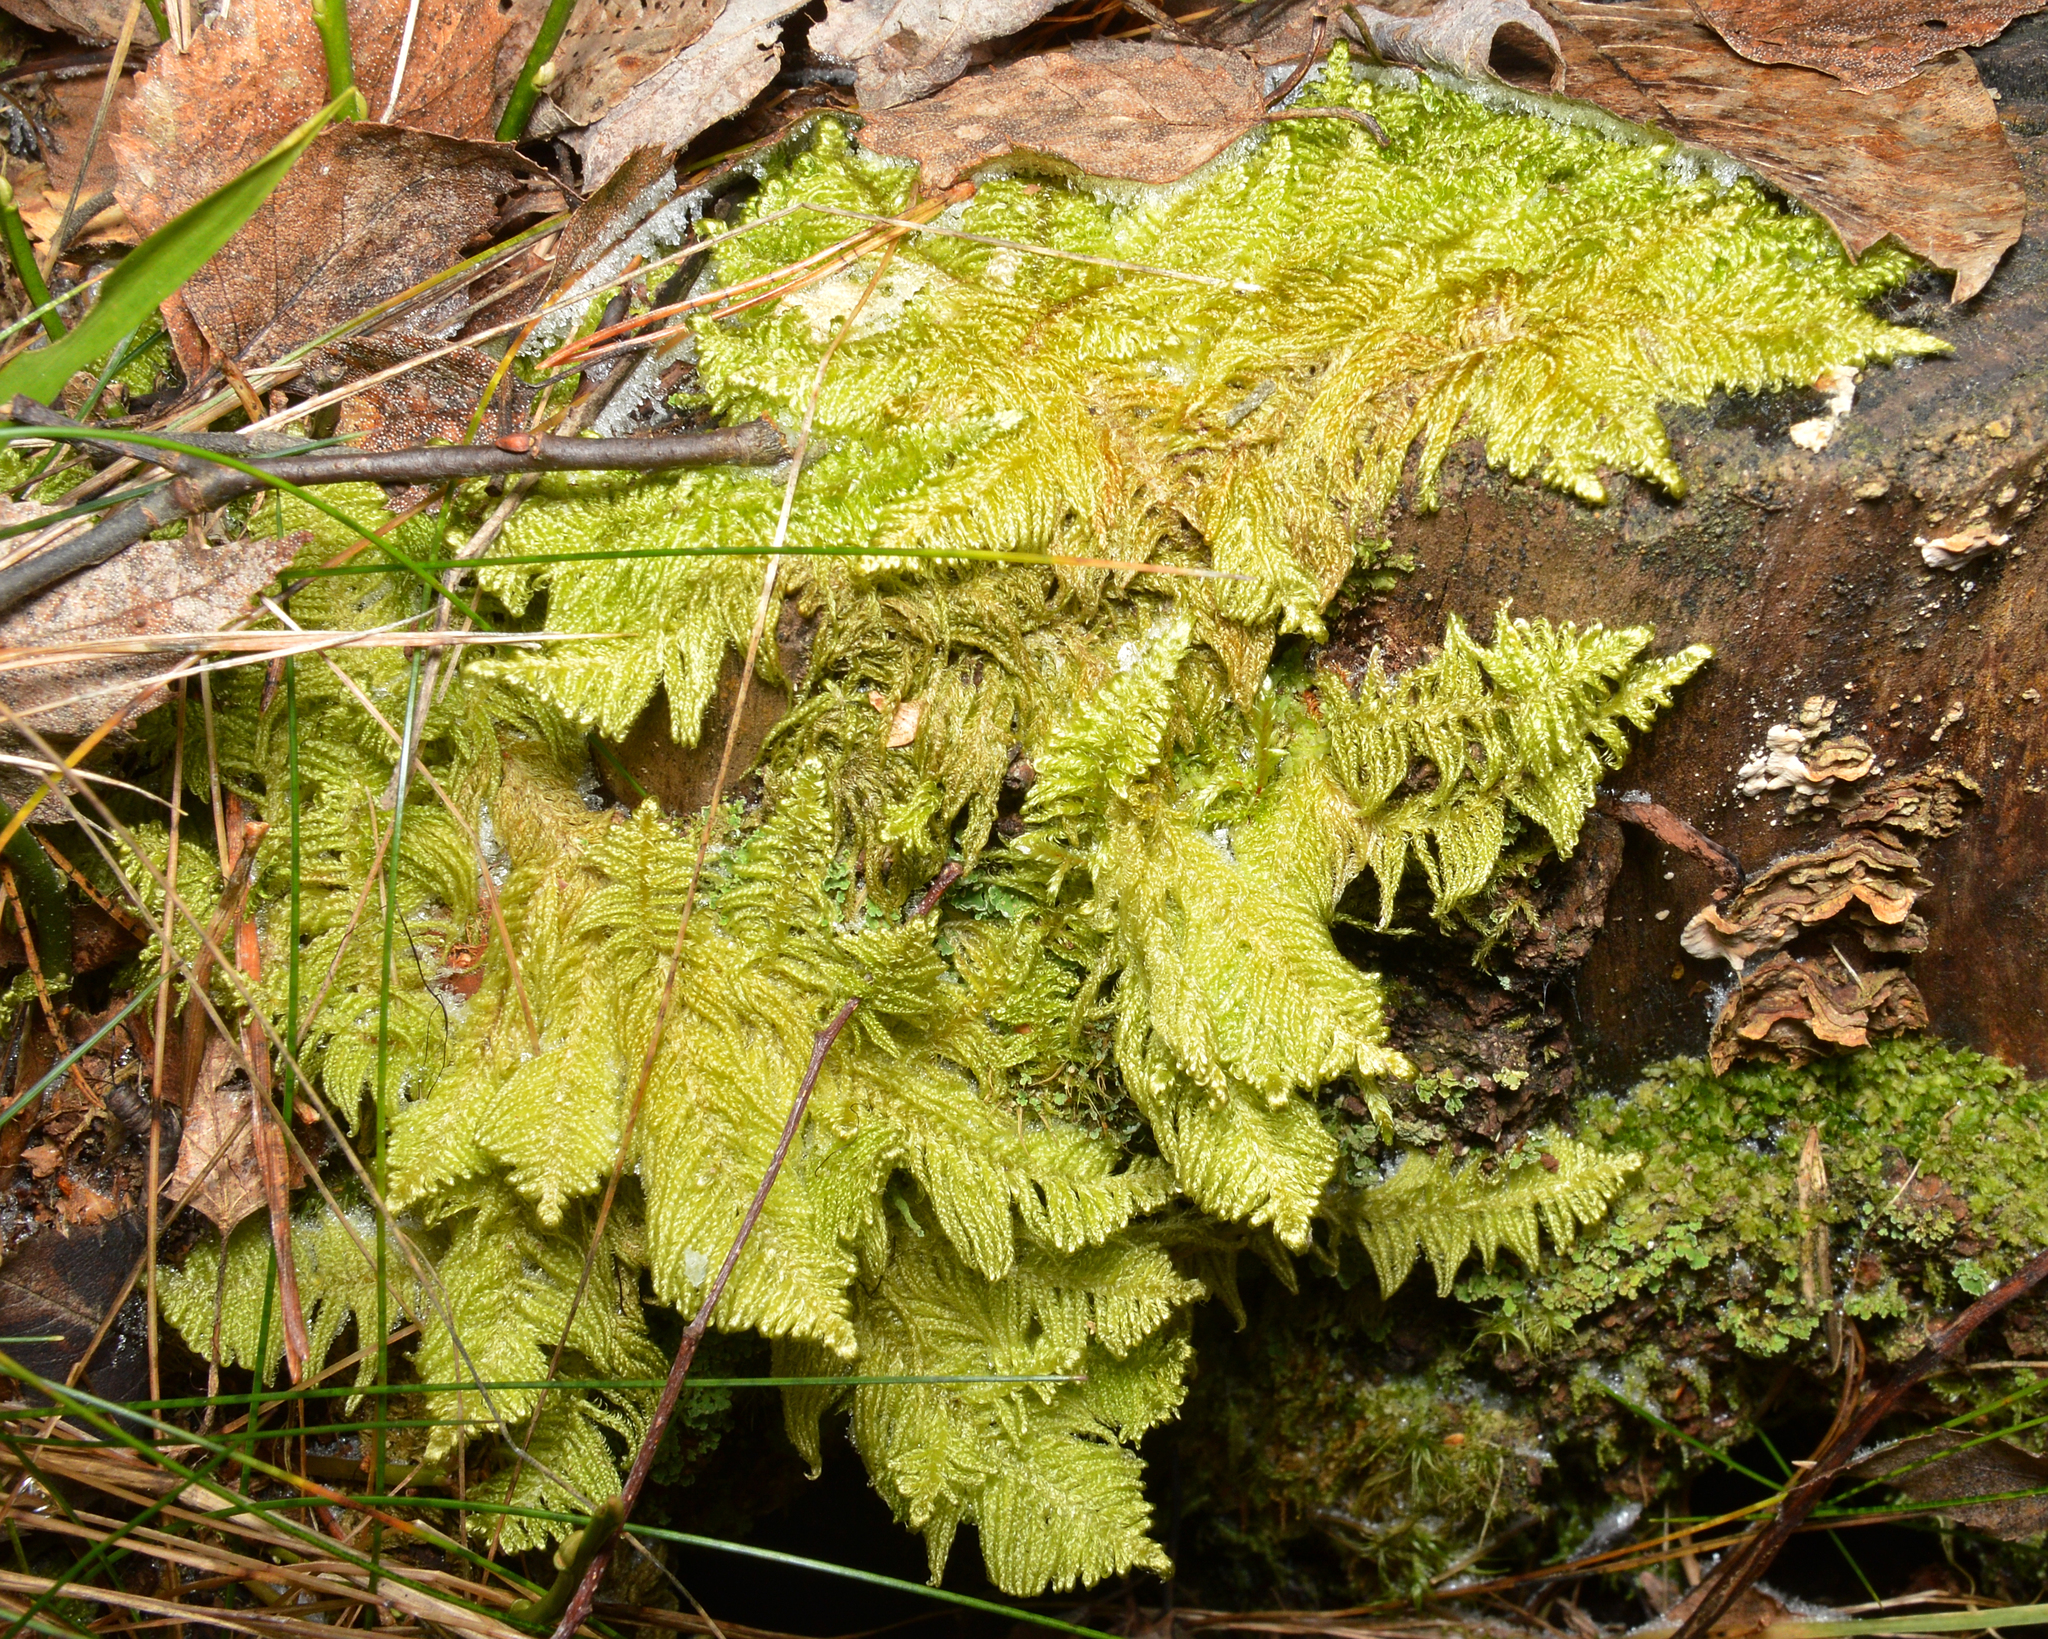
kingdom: Plantae
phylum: Bryophyta
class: Bryopsida
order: Hypnales
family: Pylaisiaceae
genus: Ptilium
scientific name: Ptilium crista-castrensis
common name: Knight's plume moss
